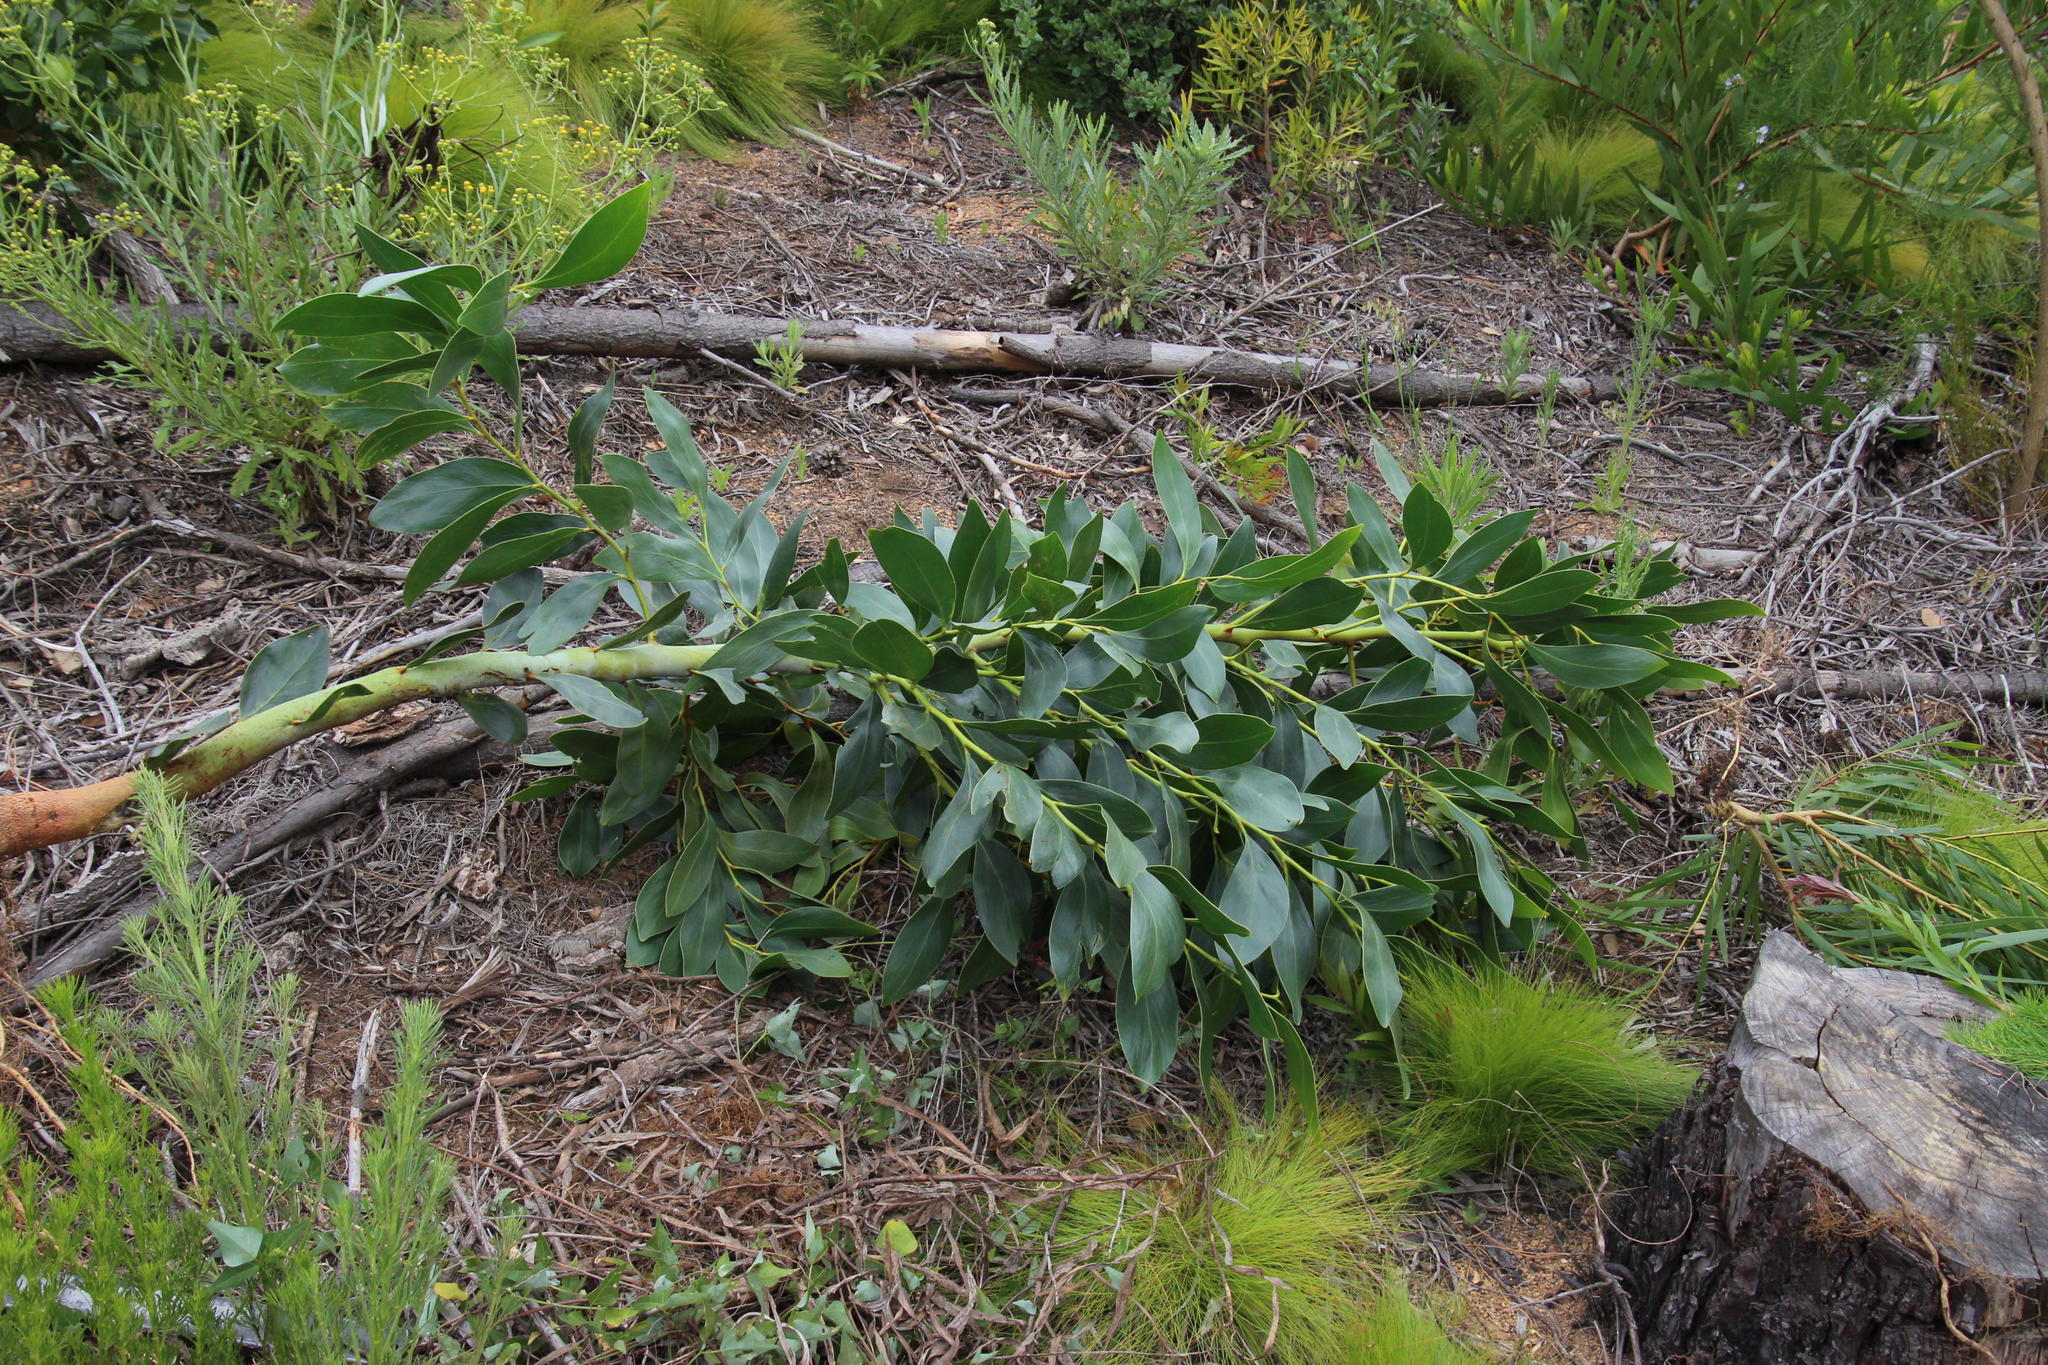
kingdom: Plantae
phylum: Tracheophyta
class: Magnoliopsida
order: Fabales
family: Fabaceae
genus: Acacia
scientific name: Acacia pycnantha
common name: Golden wattle
